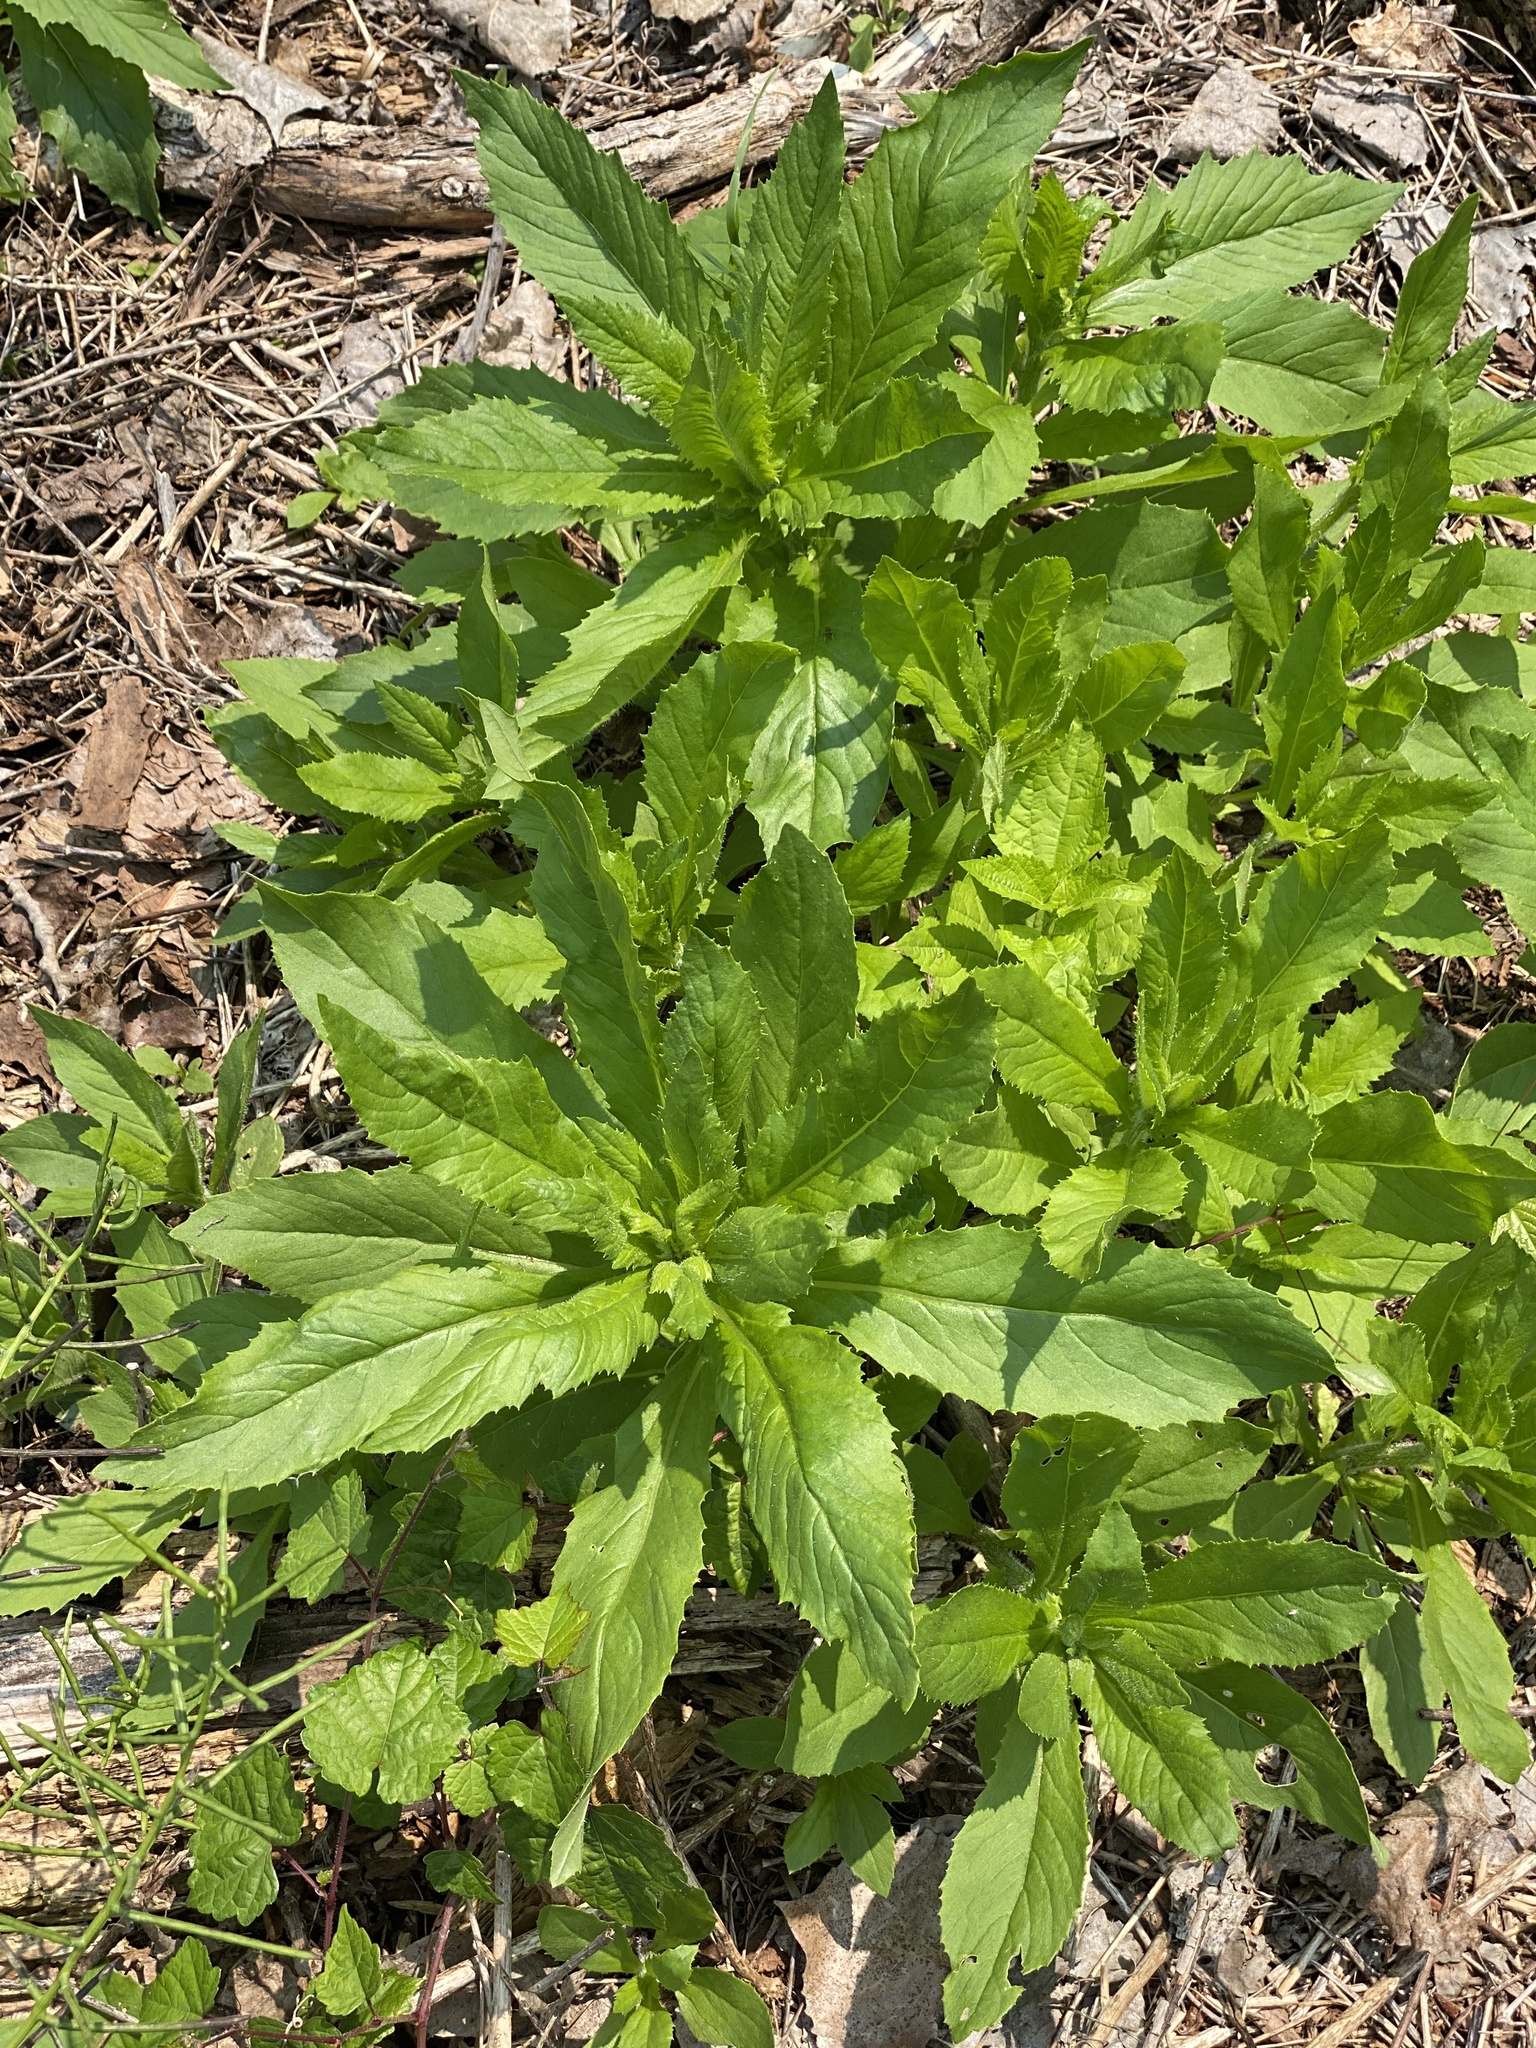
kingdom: Plantae
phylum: Tracheophyta
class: Magnoliopsida
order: Asterales
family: Asteraceae
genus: Erechtites
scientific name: Erechtites hieraciifolius
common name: American burnweed
